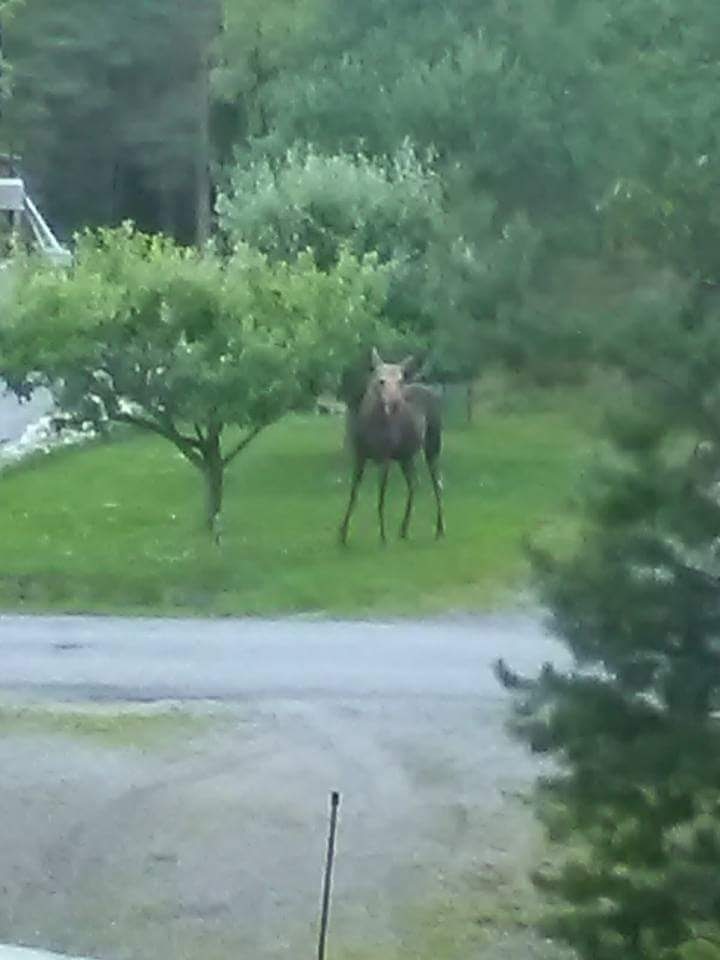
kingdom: Animalia
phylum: Chordata
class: Mammalia
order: Artiodactyla
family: Cervidae
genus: Alces
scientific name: Alces alces
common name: Moose
